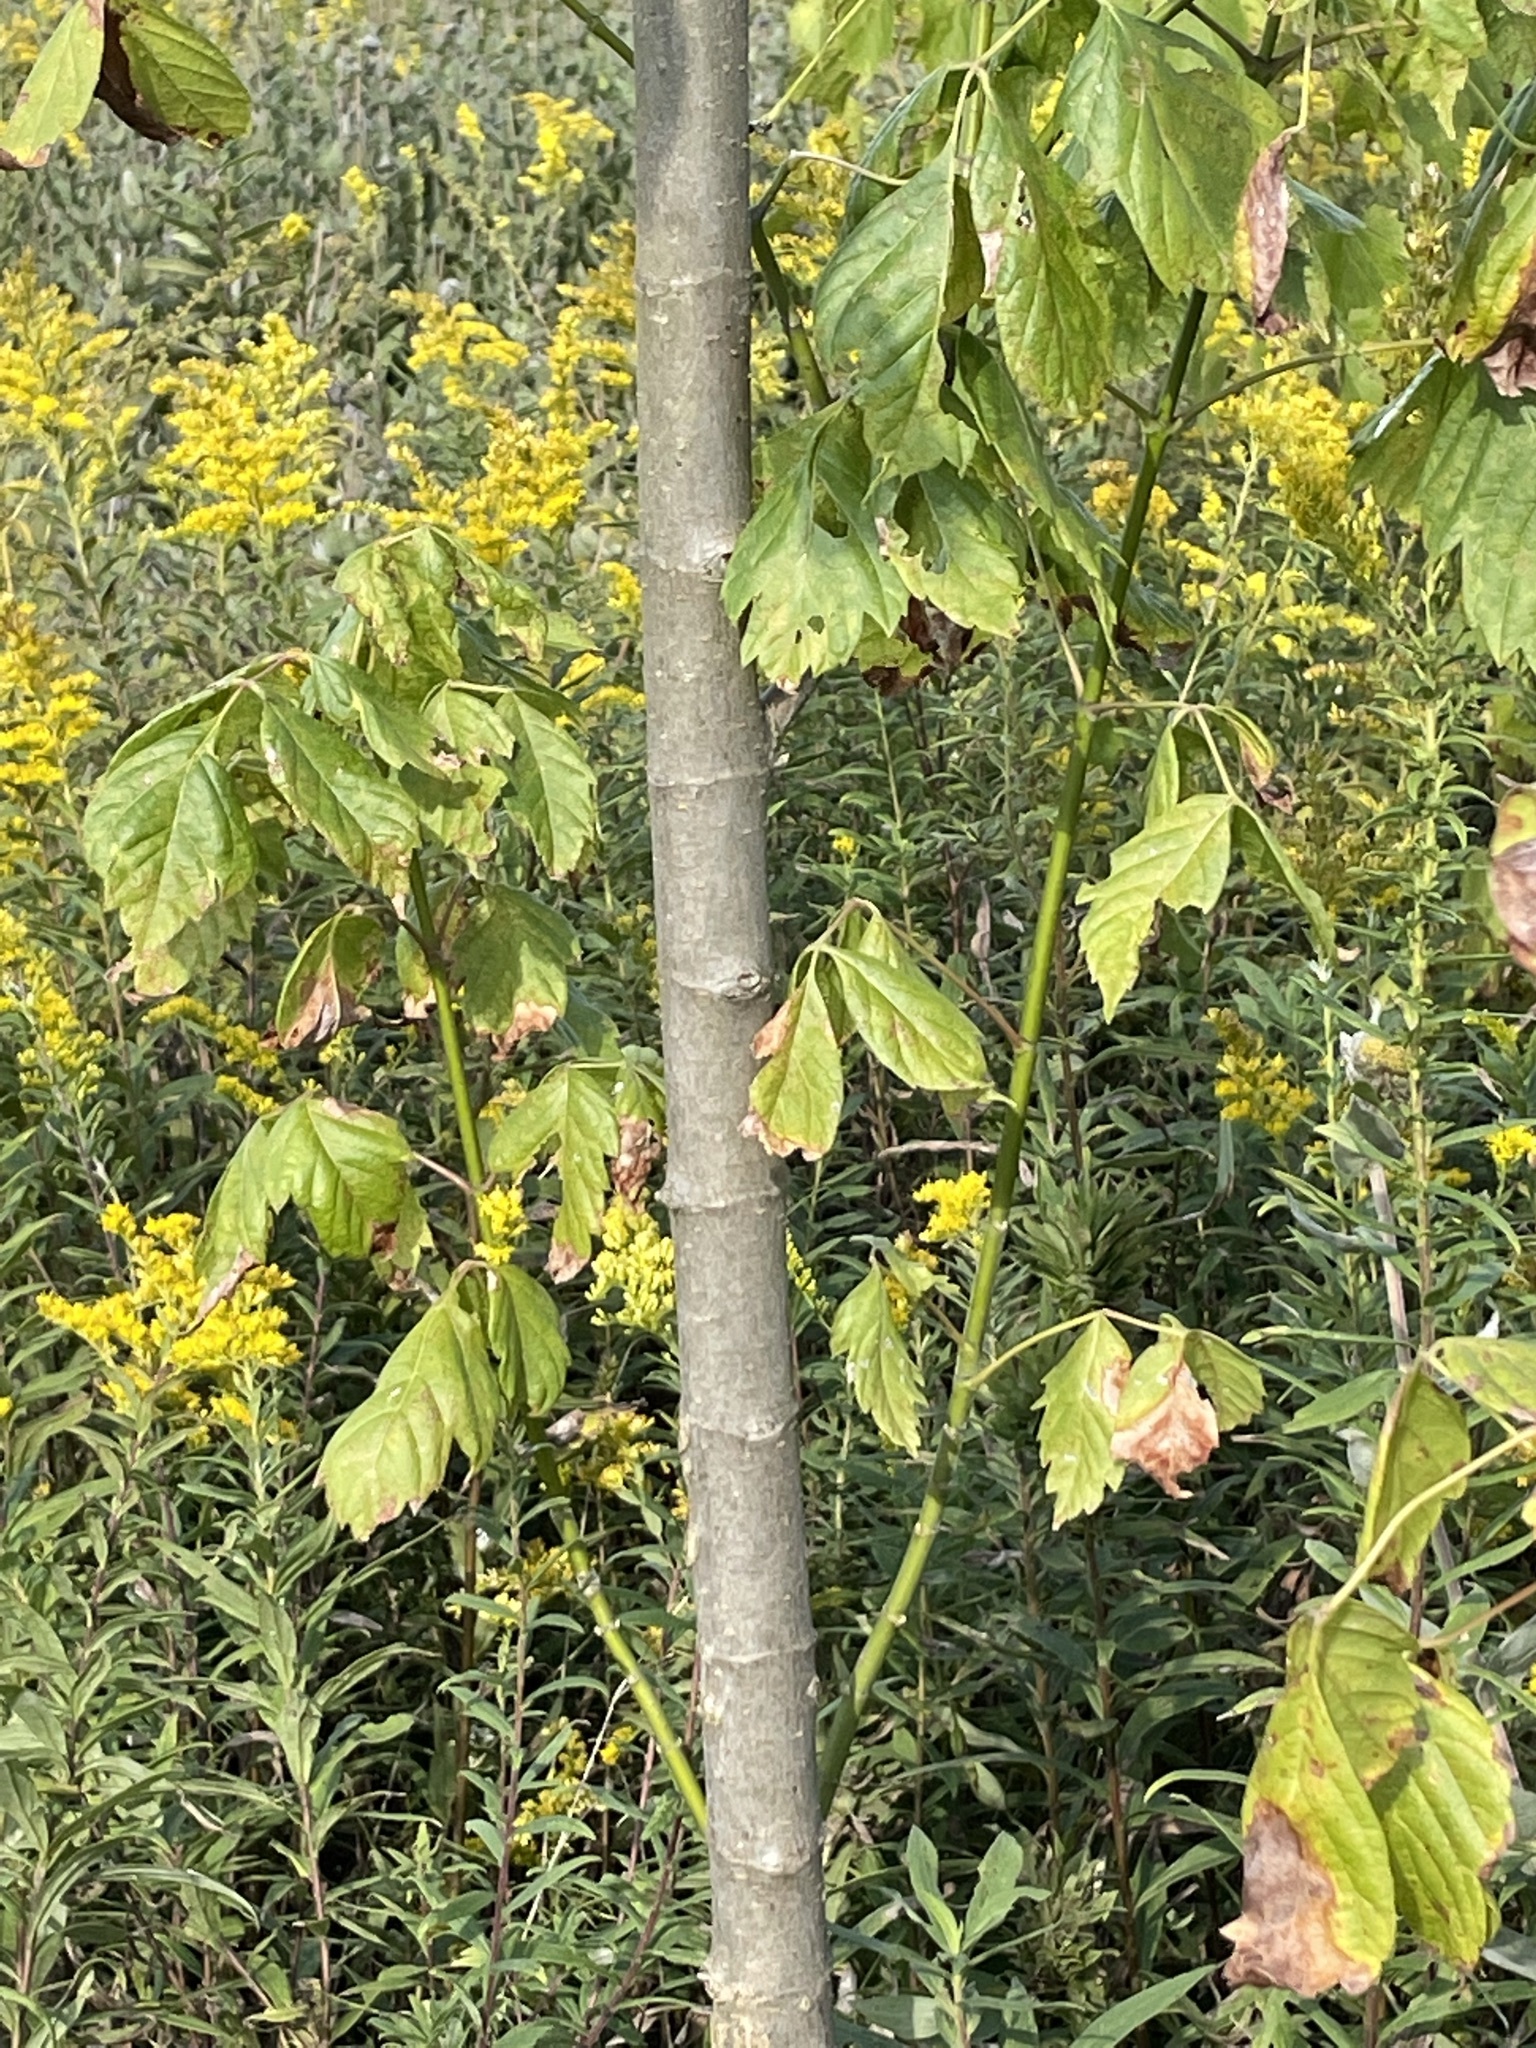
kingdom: Plantae
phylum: Tracheophyta
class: Magnoliopsida
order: Sapindales
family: Sapindaceae
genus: Acer
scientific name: Acer negundo
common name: Ashleaf maple
